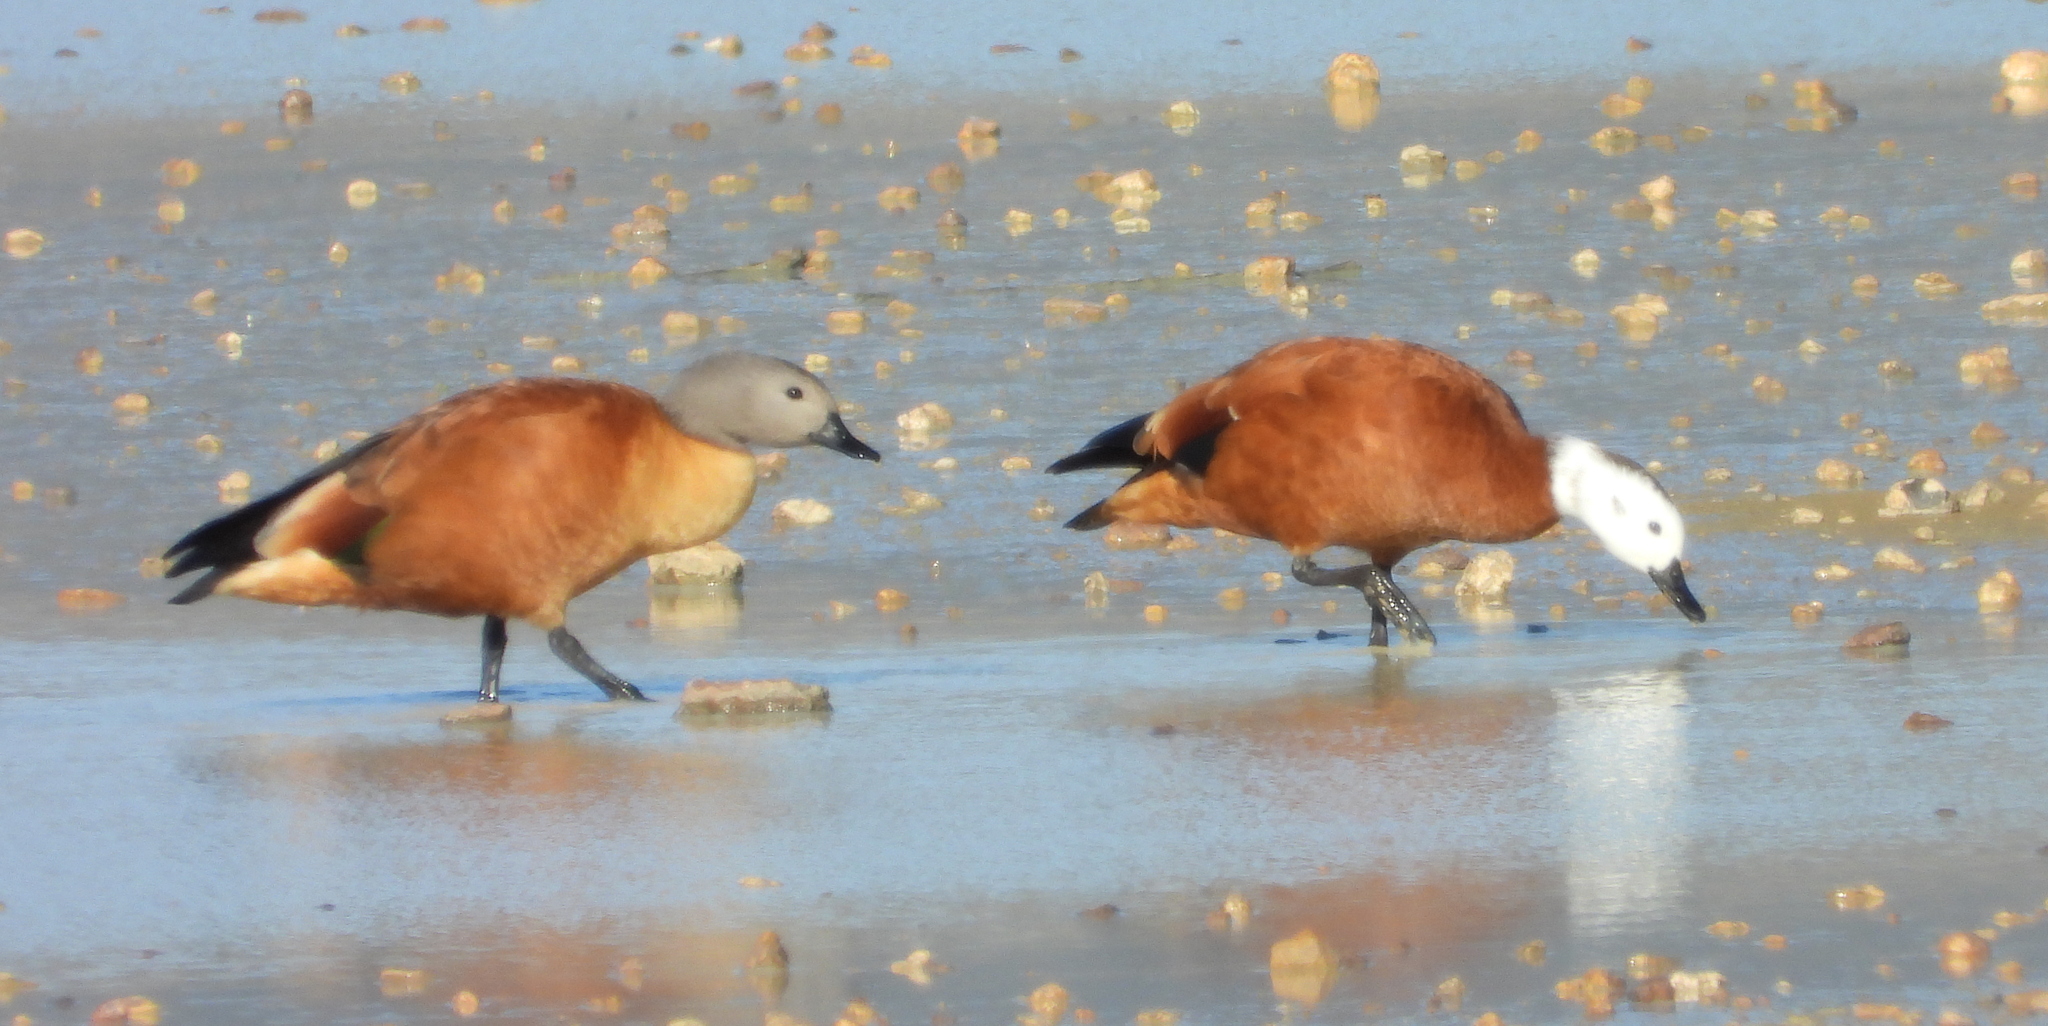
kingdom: Animalia
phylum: Chordata
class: Aves
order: Anseriformes
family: Anatidae
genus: Tadorna
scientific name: Tadorna cana
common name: South african shelduck
